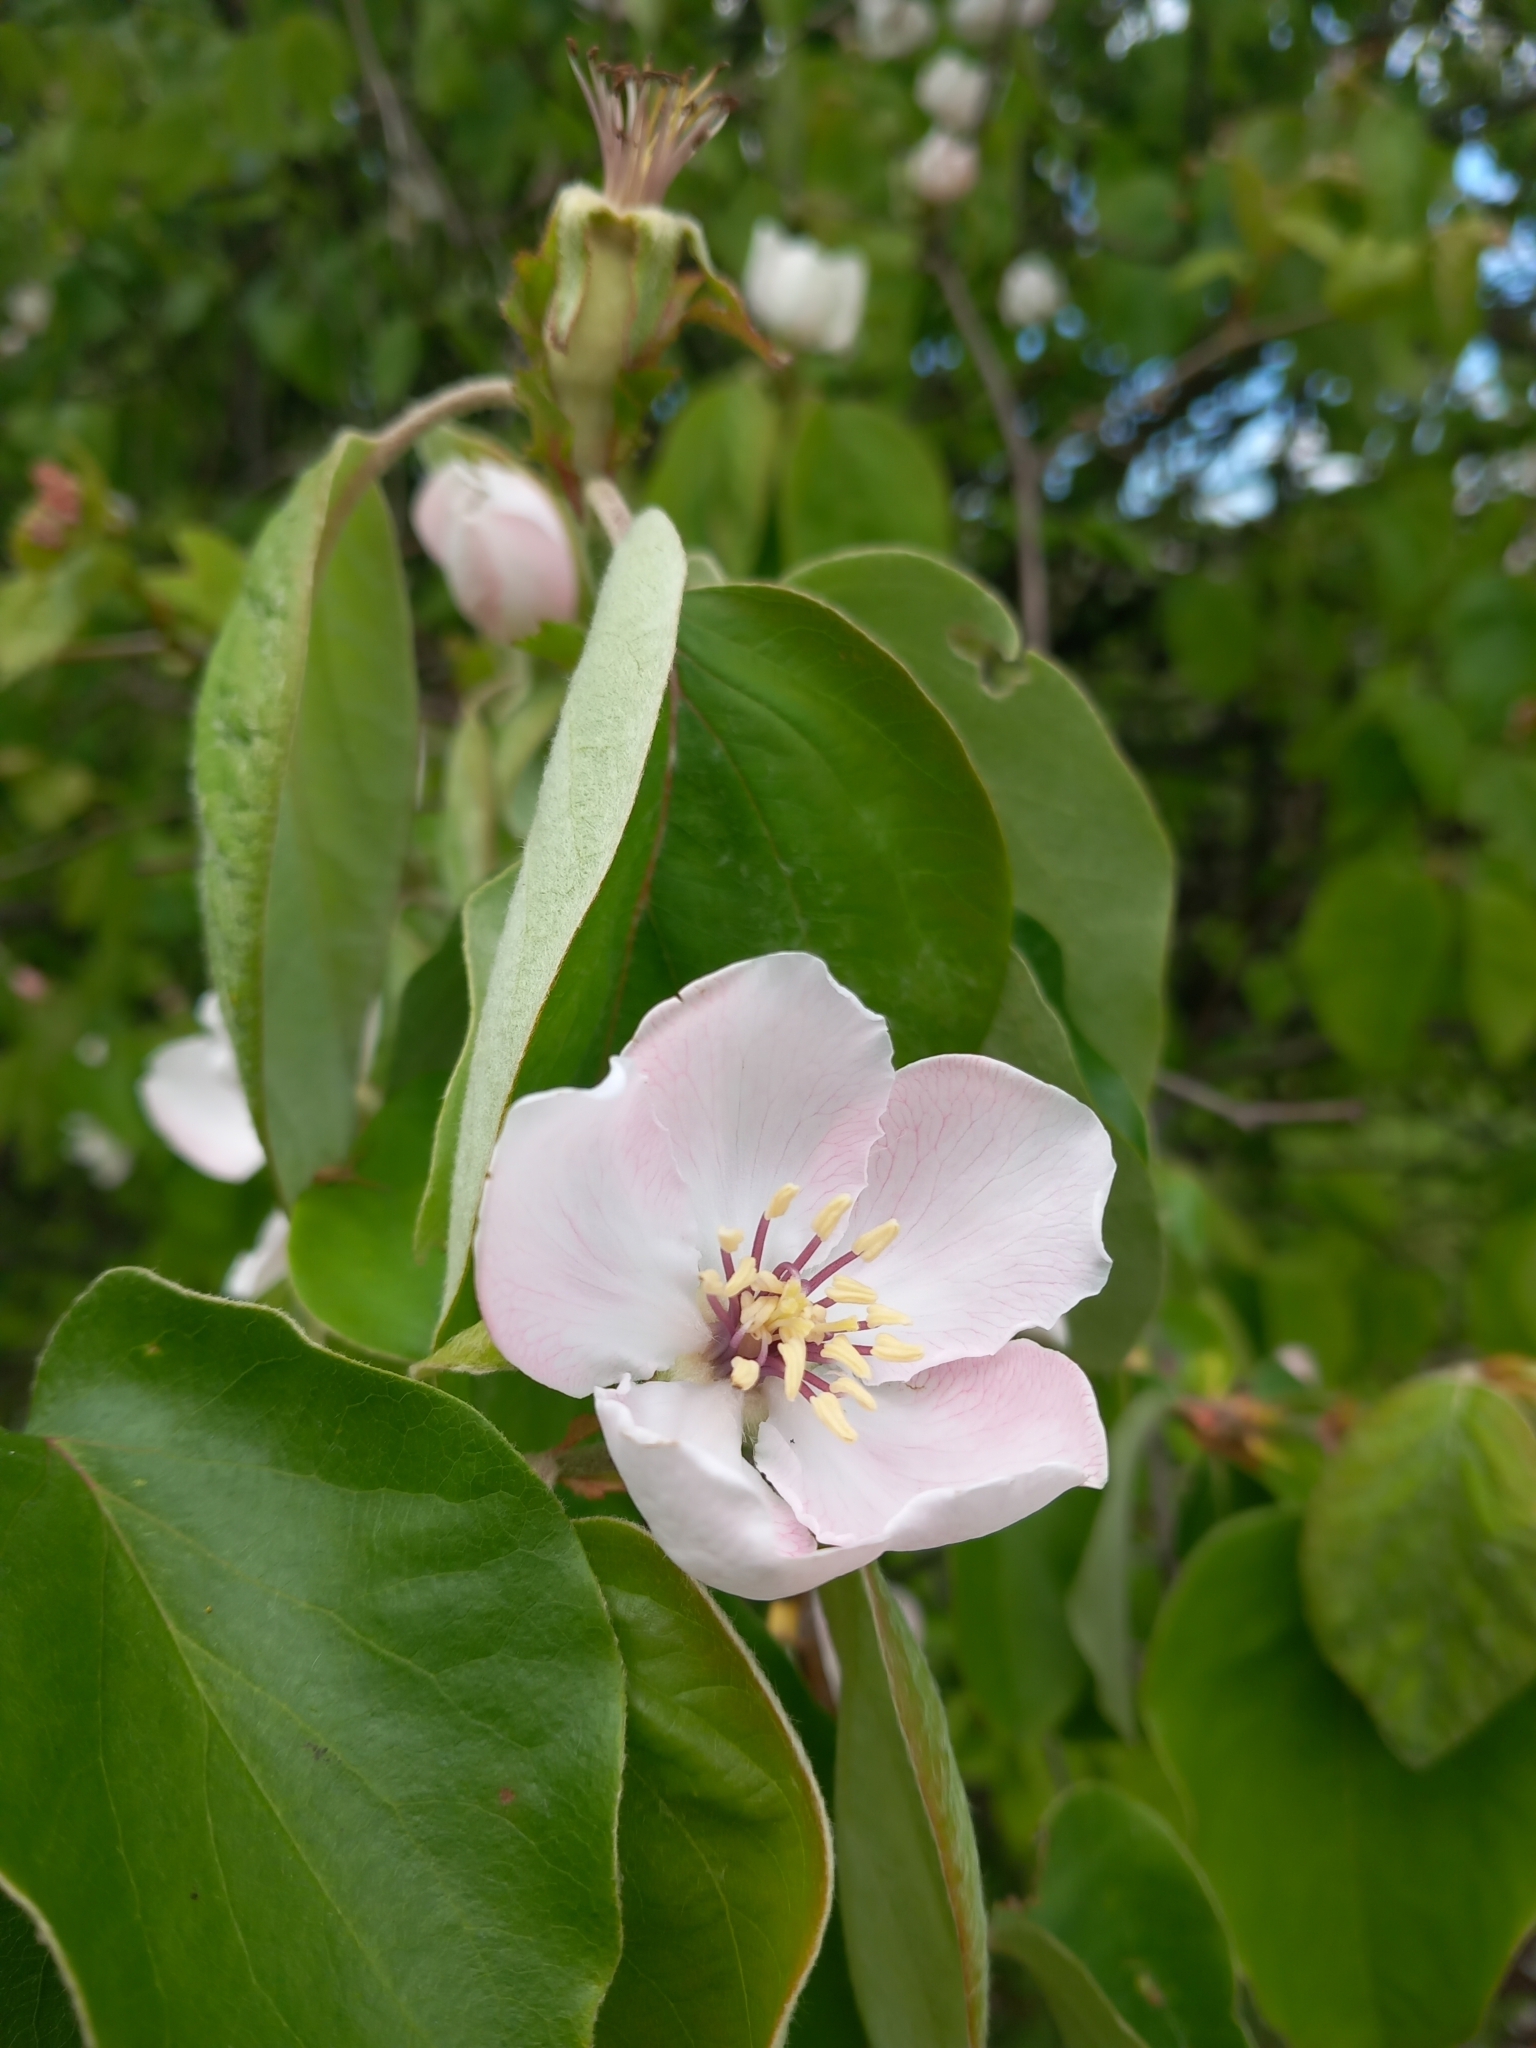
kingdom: Plantae
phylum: Tracheophyta
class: Magnoliopsida
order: Rosales
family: Rosaceae
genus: Cydonia
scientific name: Cydonia oblonga
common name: Quince
